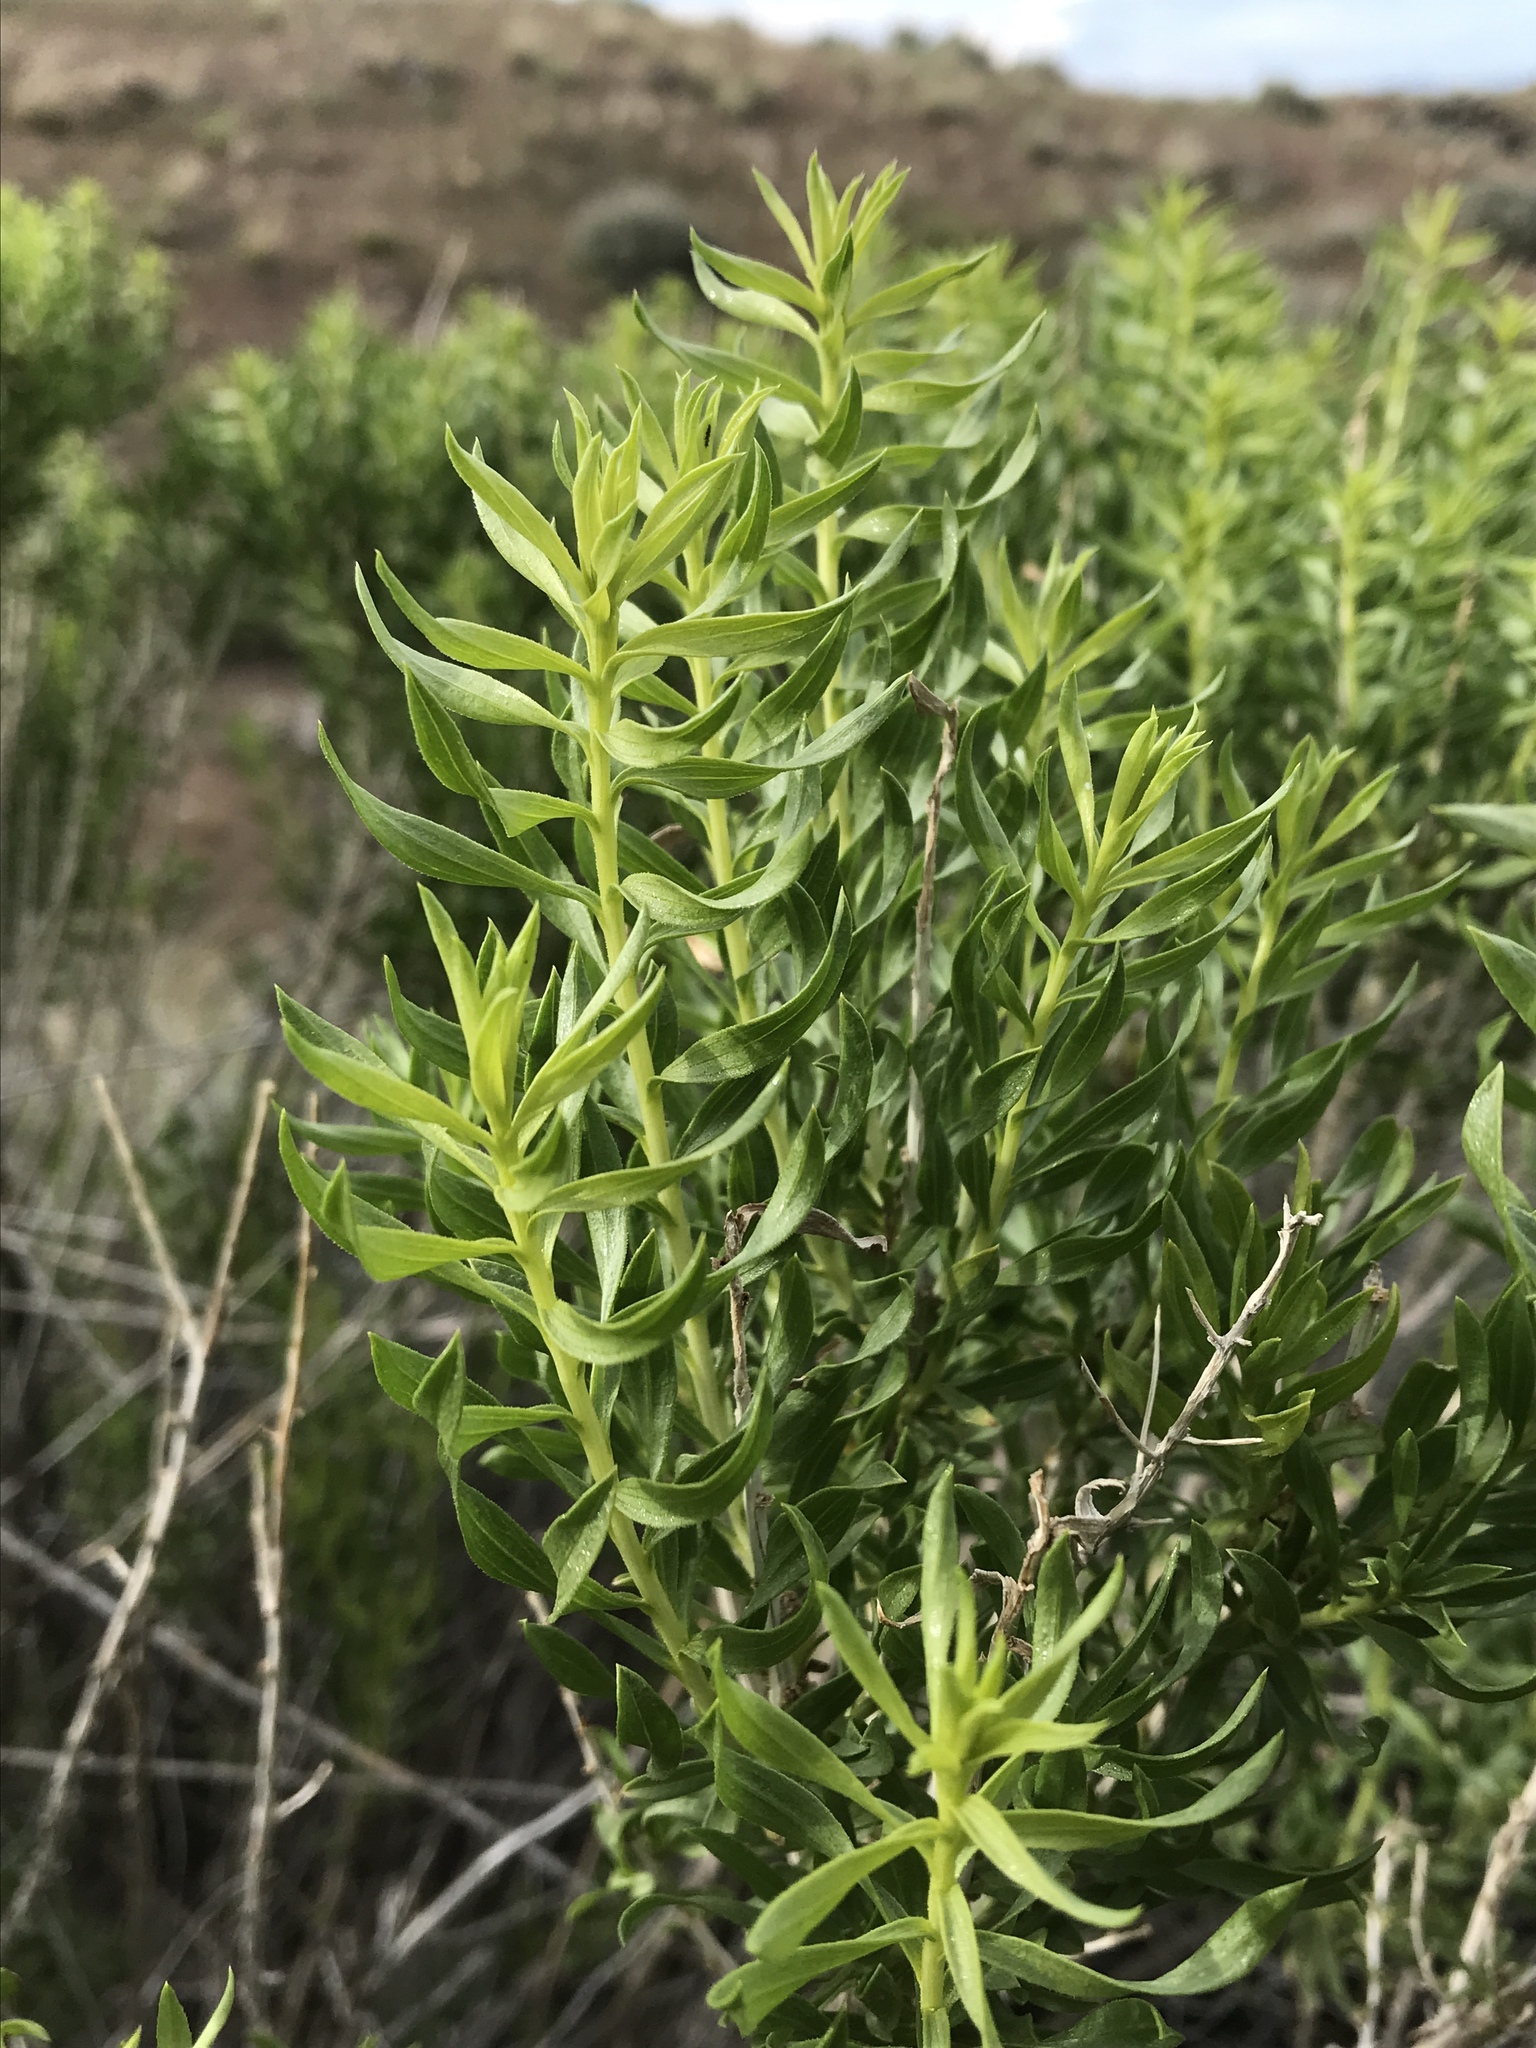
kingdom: Plantae
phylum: Tracheophyta
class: Magnoliopsida
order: Asterales
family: Asteraceae
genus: Chrysothamnus
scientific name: Chrysothamnus viscidiflorus
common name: Yellow rabbitbrush
